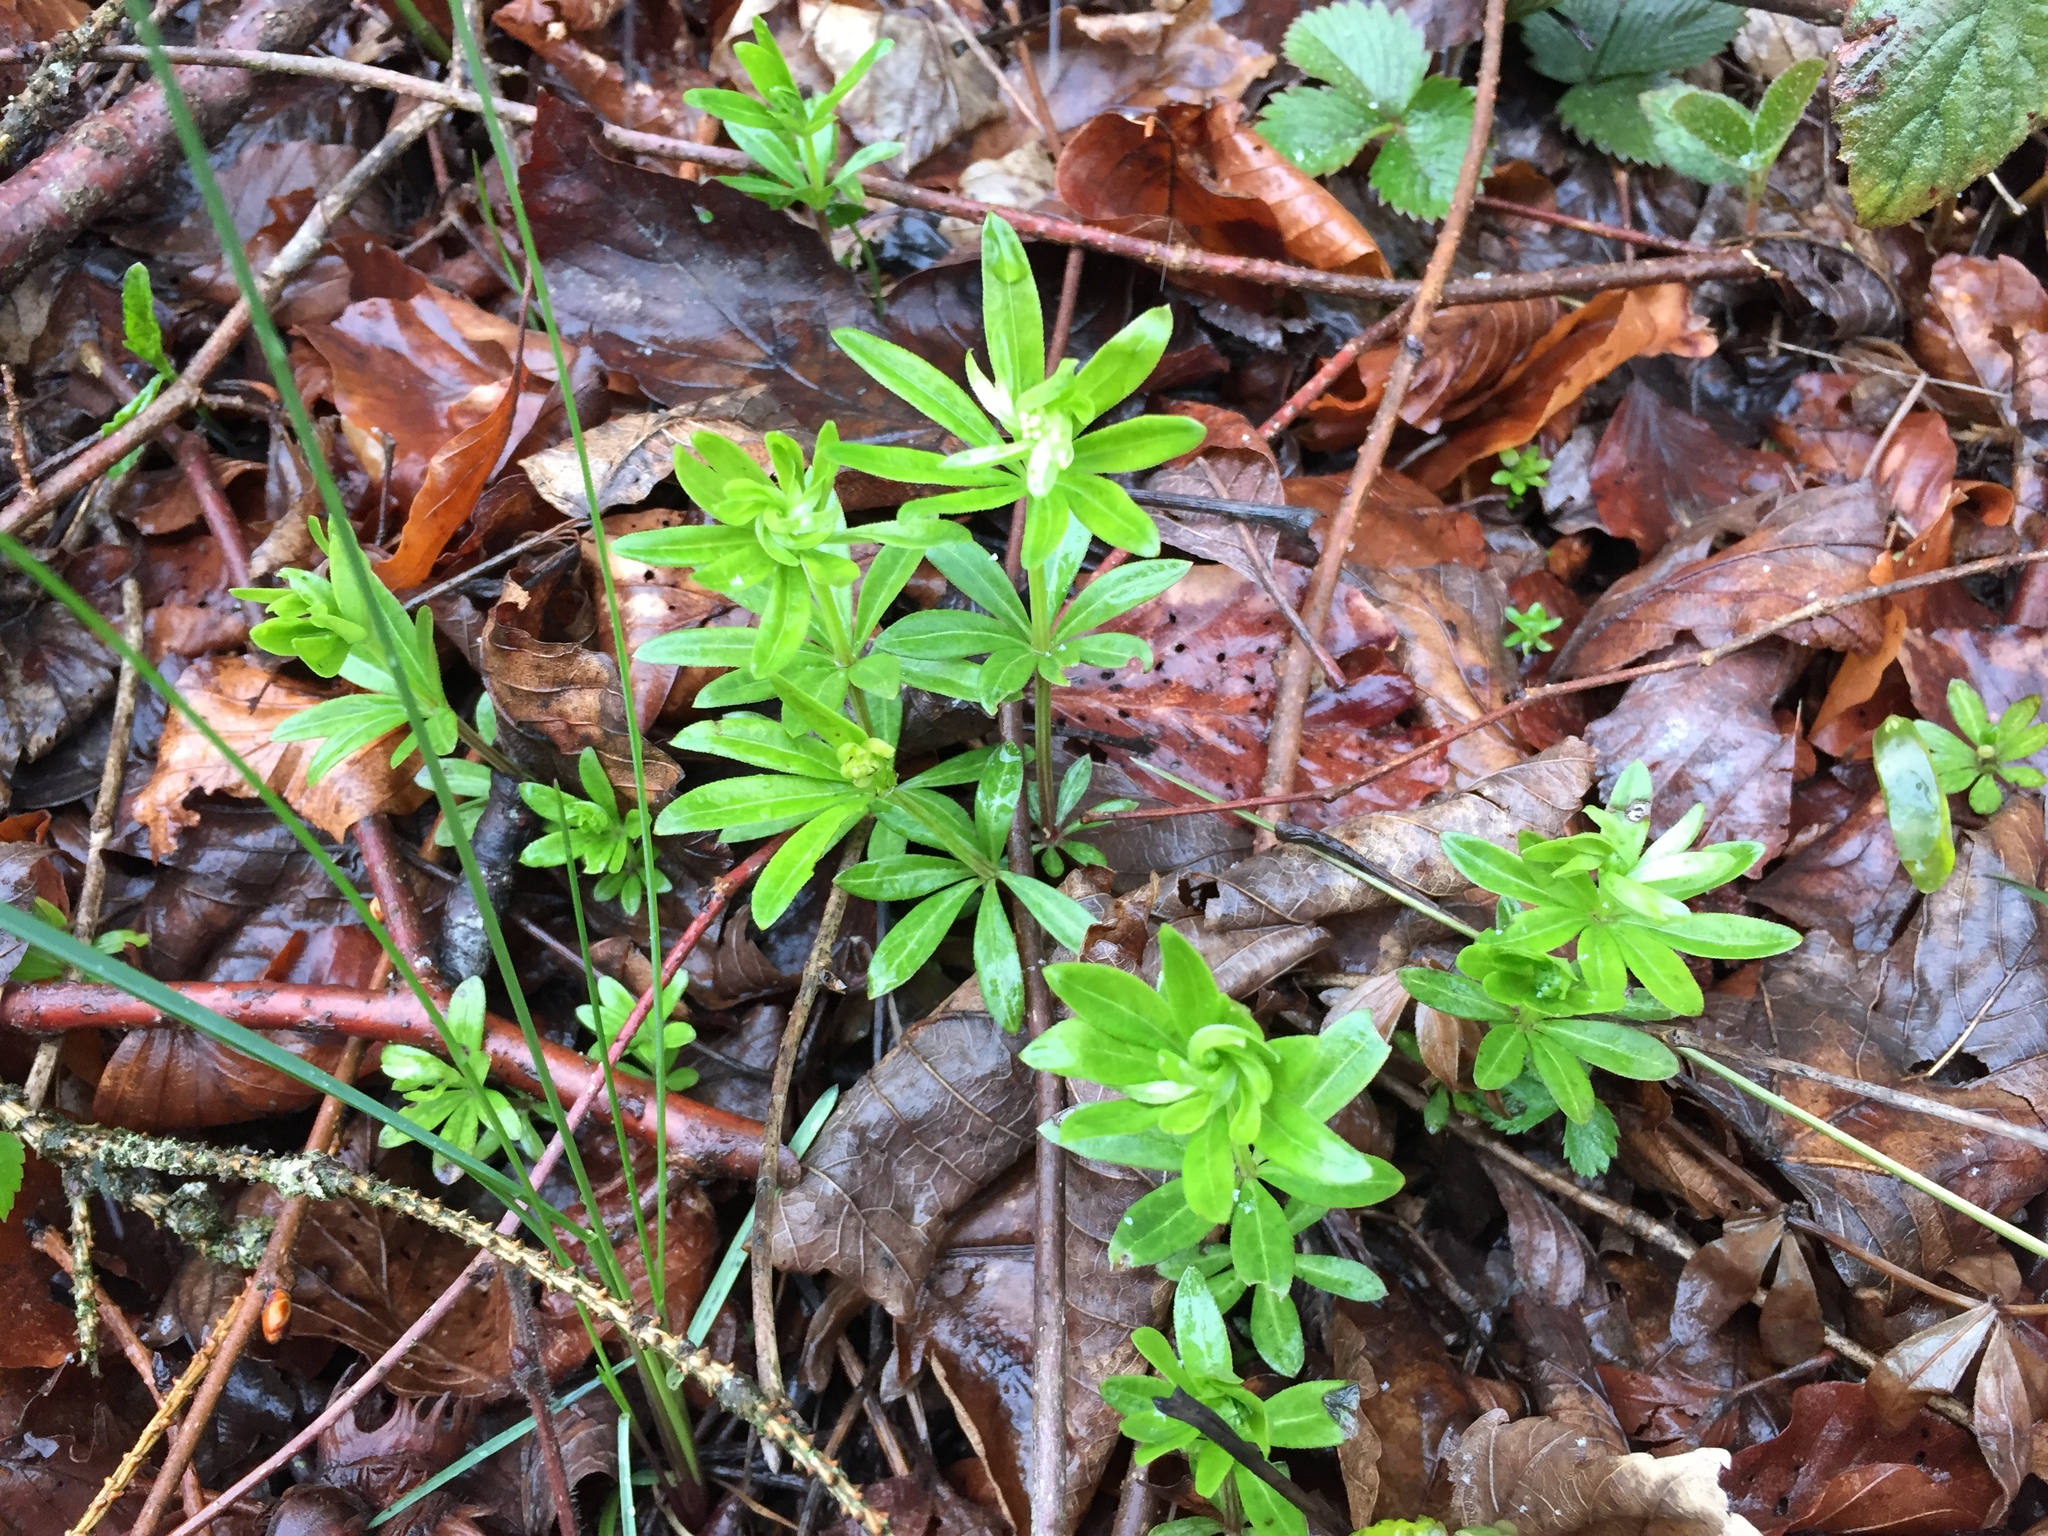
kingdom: Plantae
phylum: Tracheophyta
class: Magnoliopsida
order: Gentianales
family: Rubiaceae
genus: Galium
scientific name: Galium odoratum
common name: Sweet woodruff
